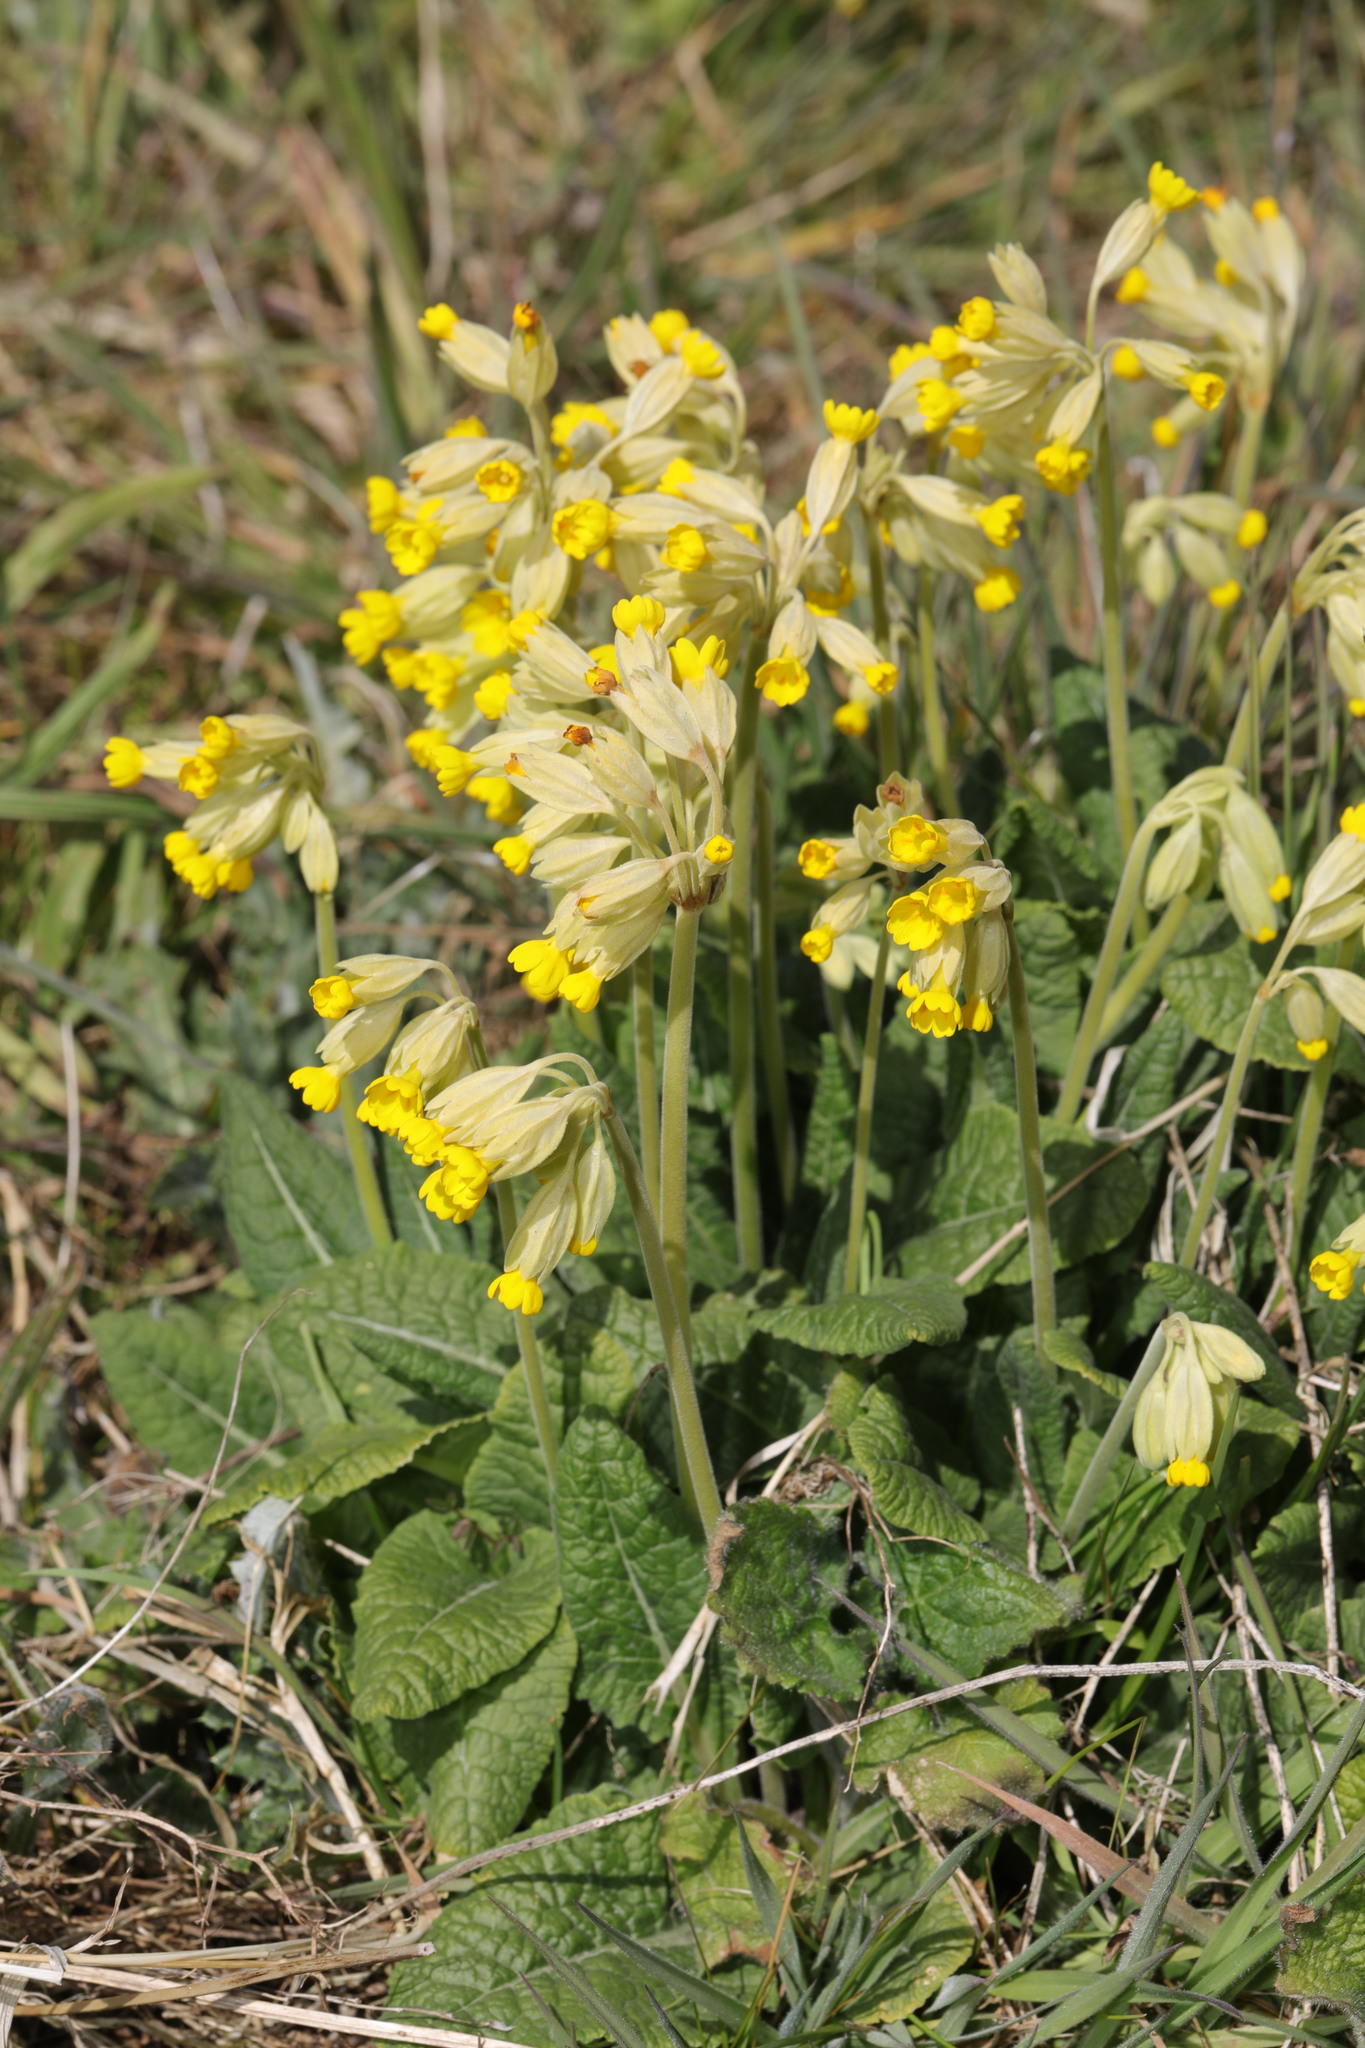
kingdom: Plantae
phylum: Tracheophyta
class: Magnoliopsida
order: Ericales
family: Primulaceae
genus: Primula
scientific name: Primula veris
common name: Cowslip
